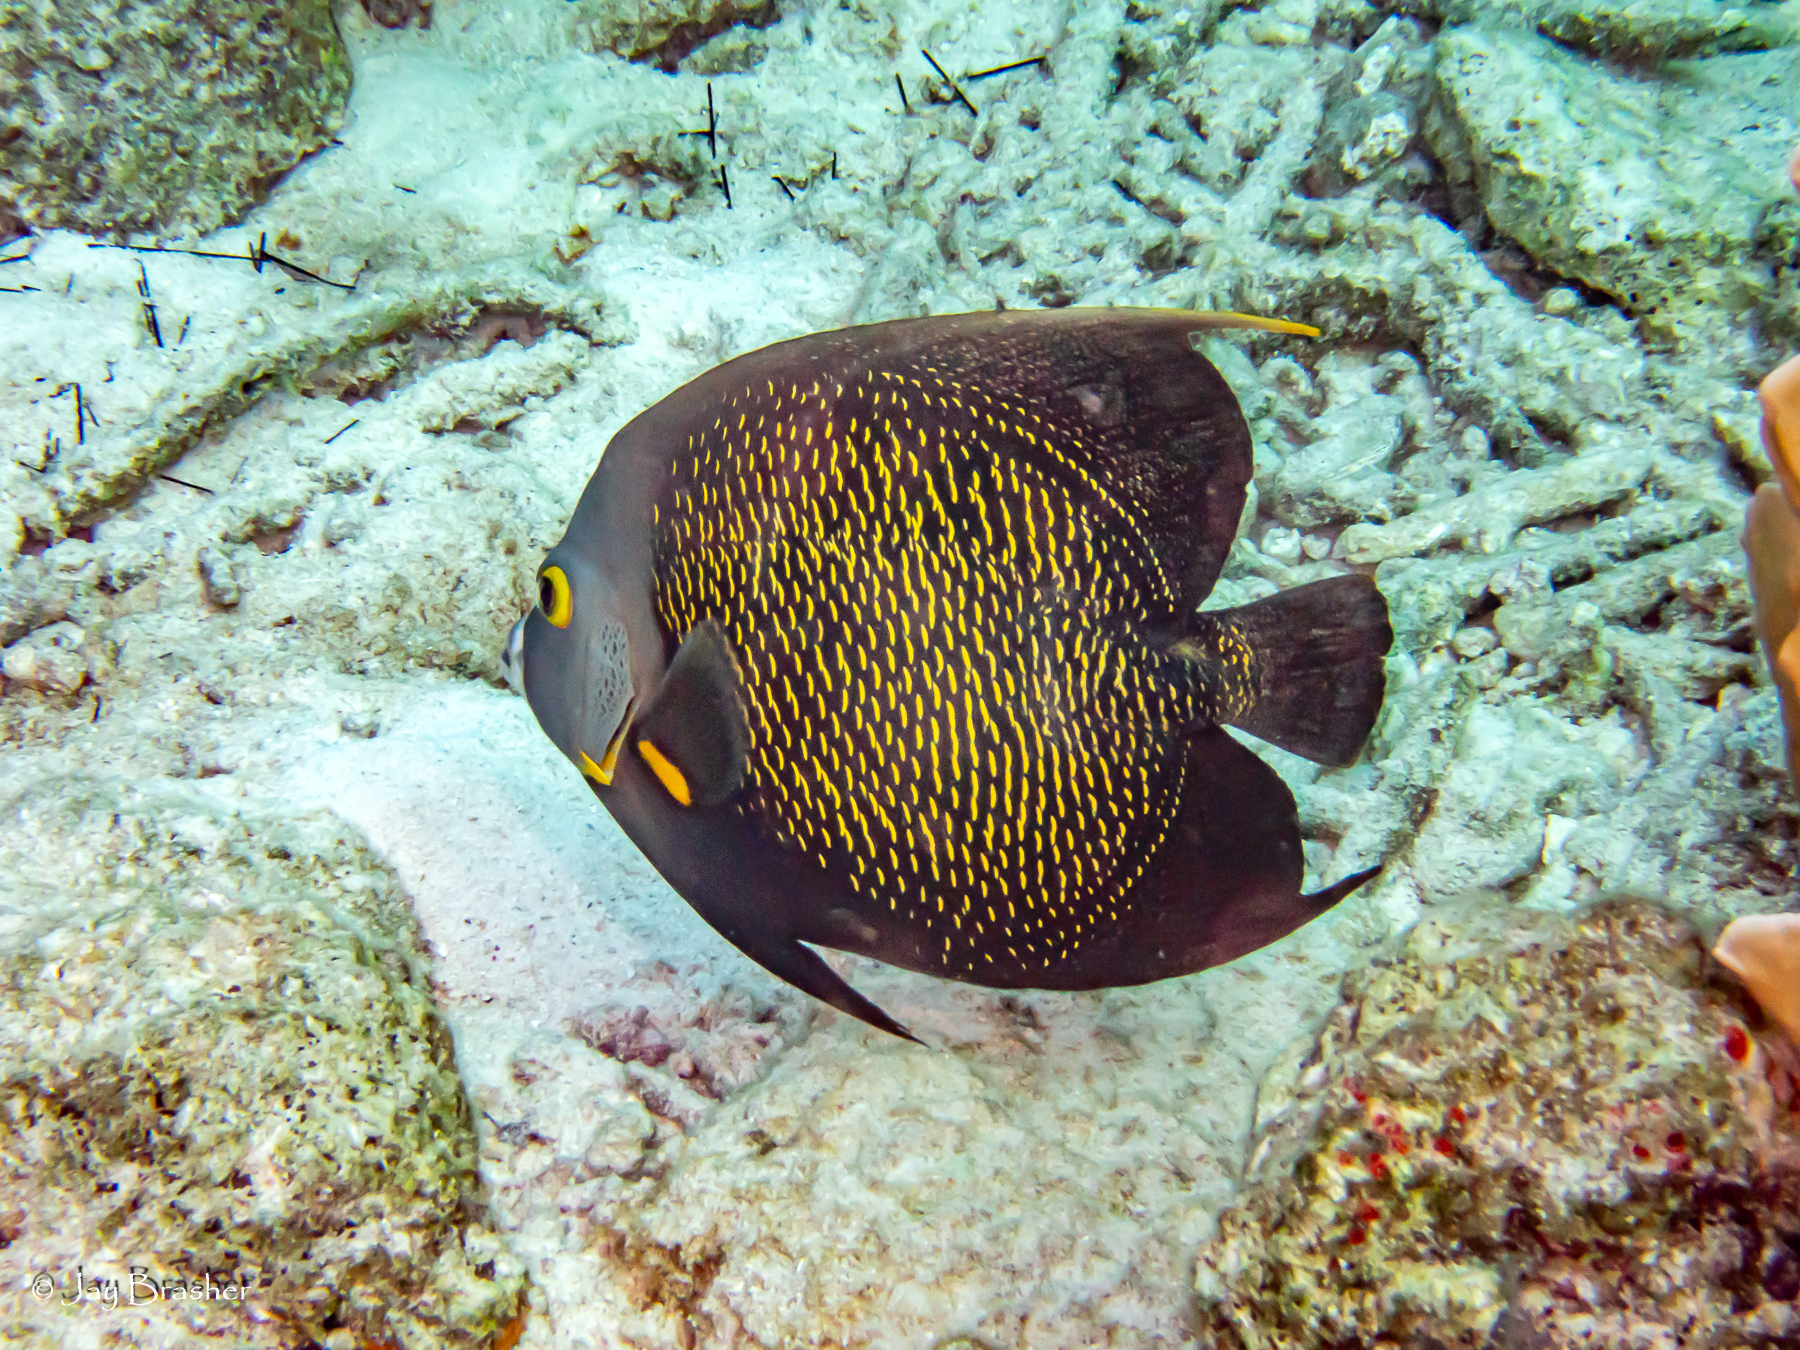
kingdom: Animalia
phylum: Chordata
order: Perciformes
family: Pomacanthidae
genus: Pomacanthus
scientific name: Pomacanthus paru
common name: French angelfish
